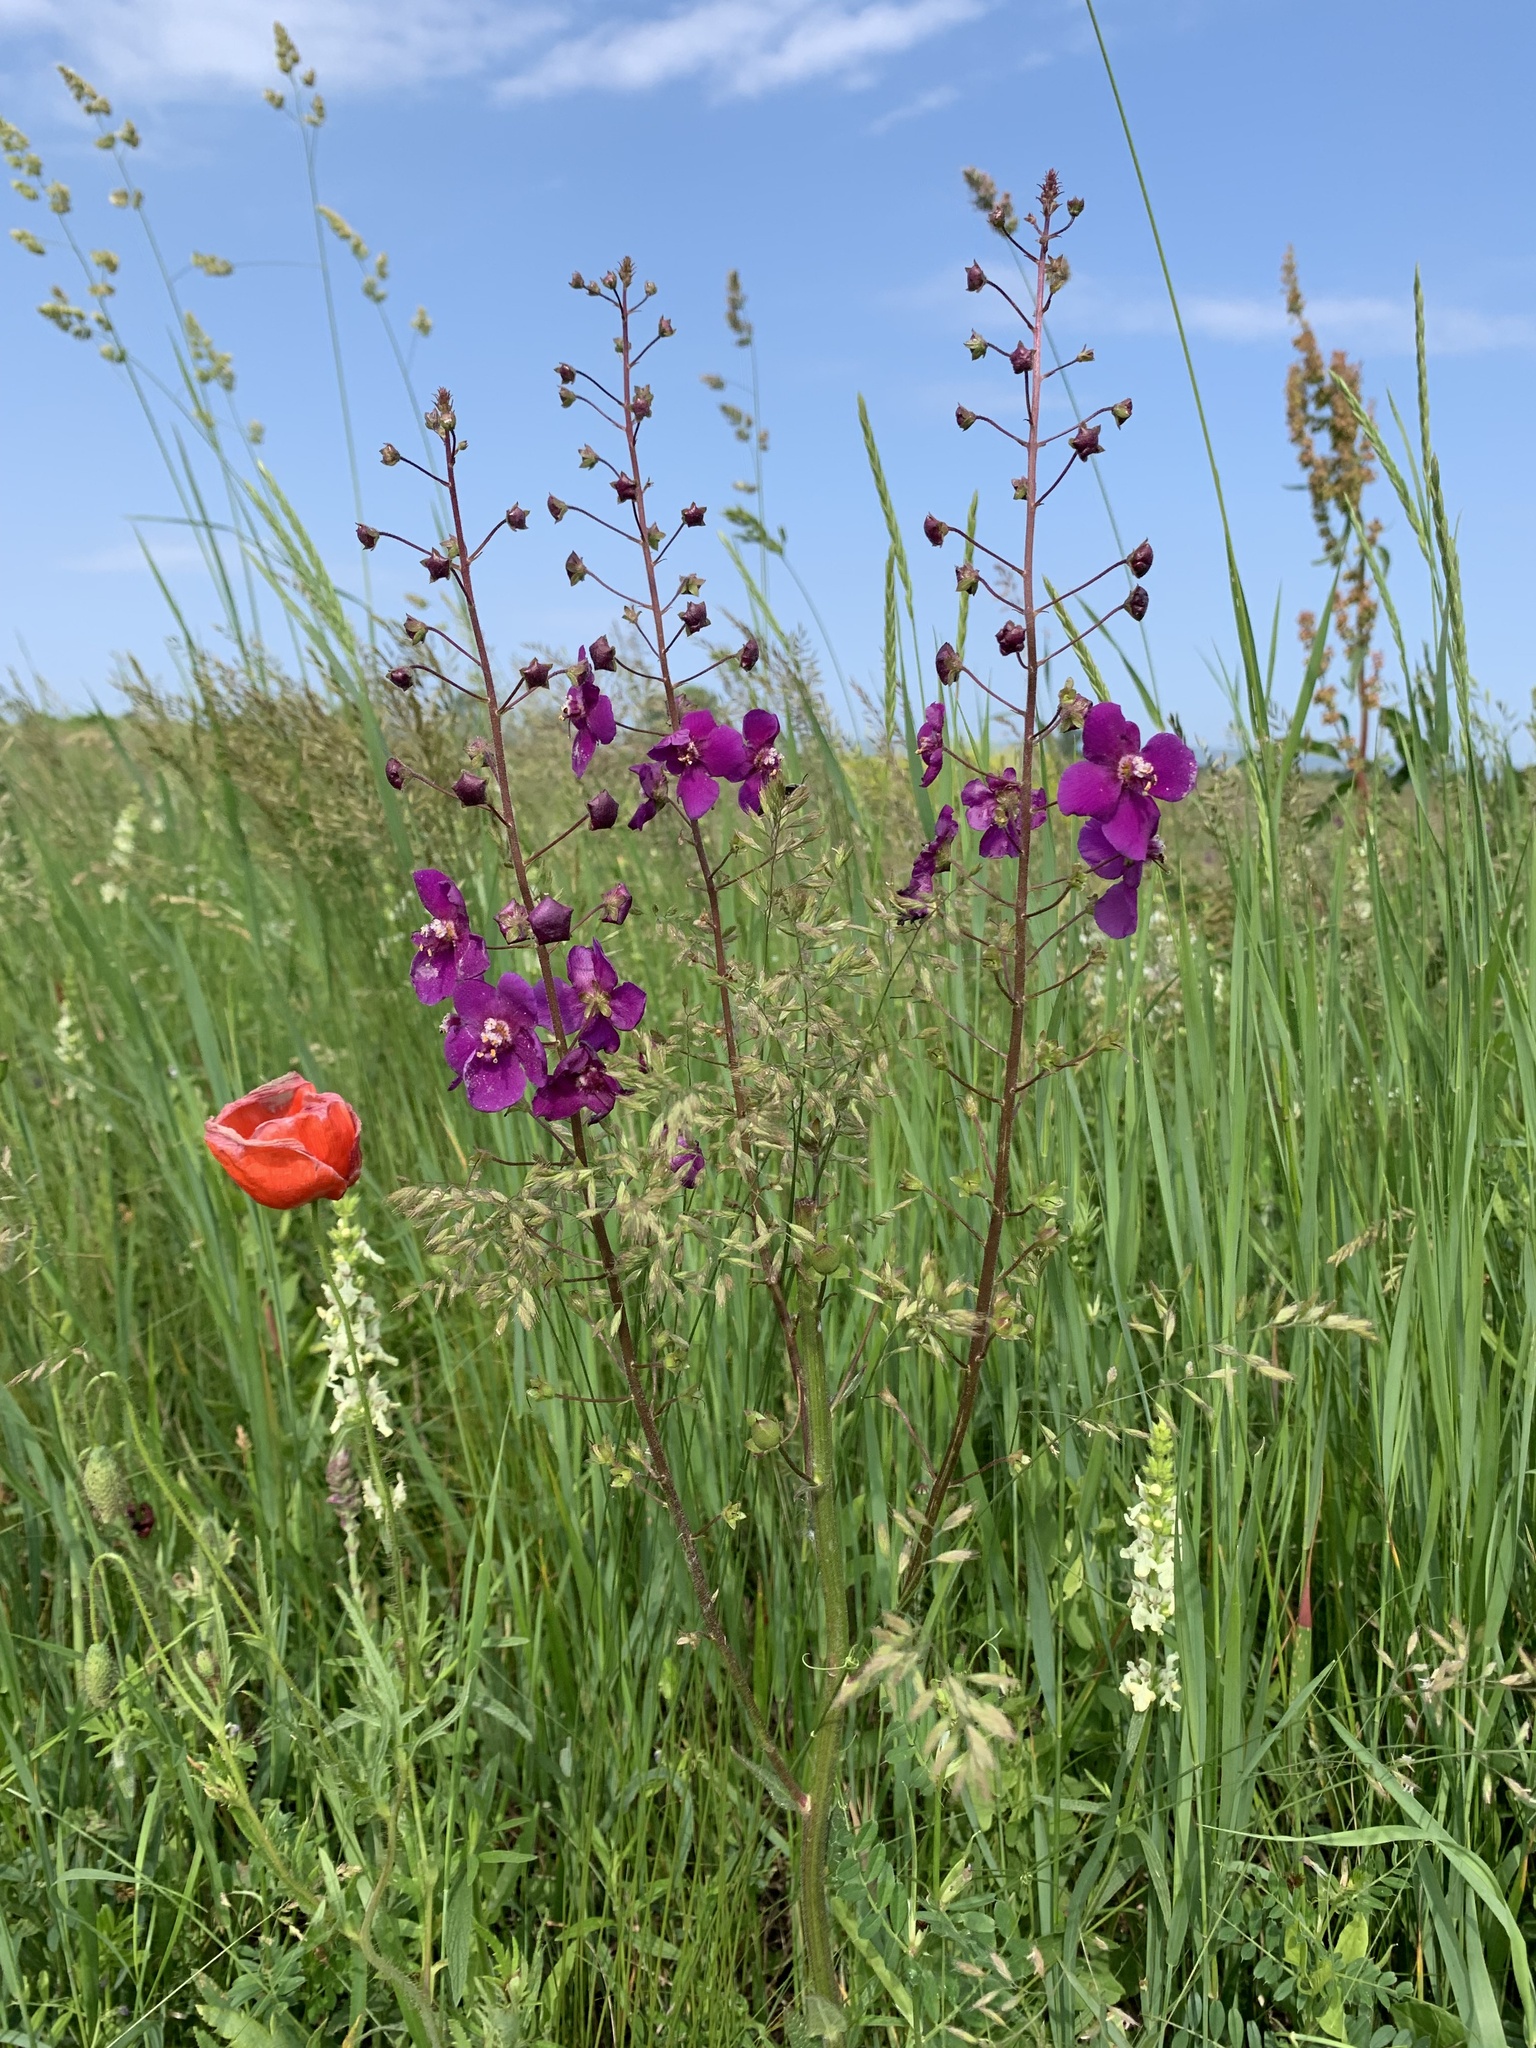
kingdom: Plantae
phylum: Tracheophyta
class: Magnoliopsida
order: Lamiales
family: Scrophulariaceae
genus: Verbascum
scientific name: Verbascum phoeniceum
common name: Purple mullein
